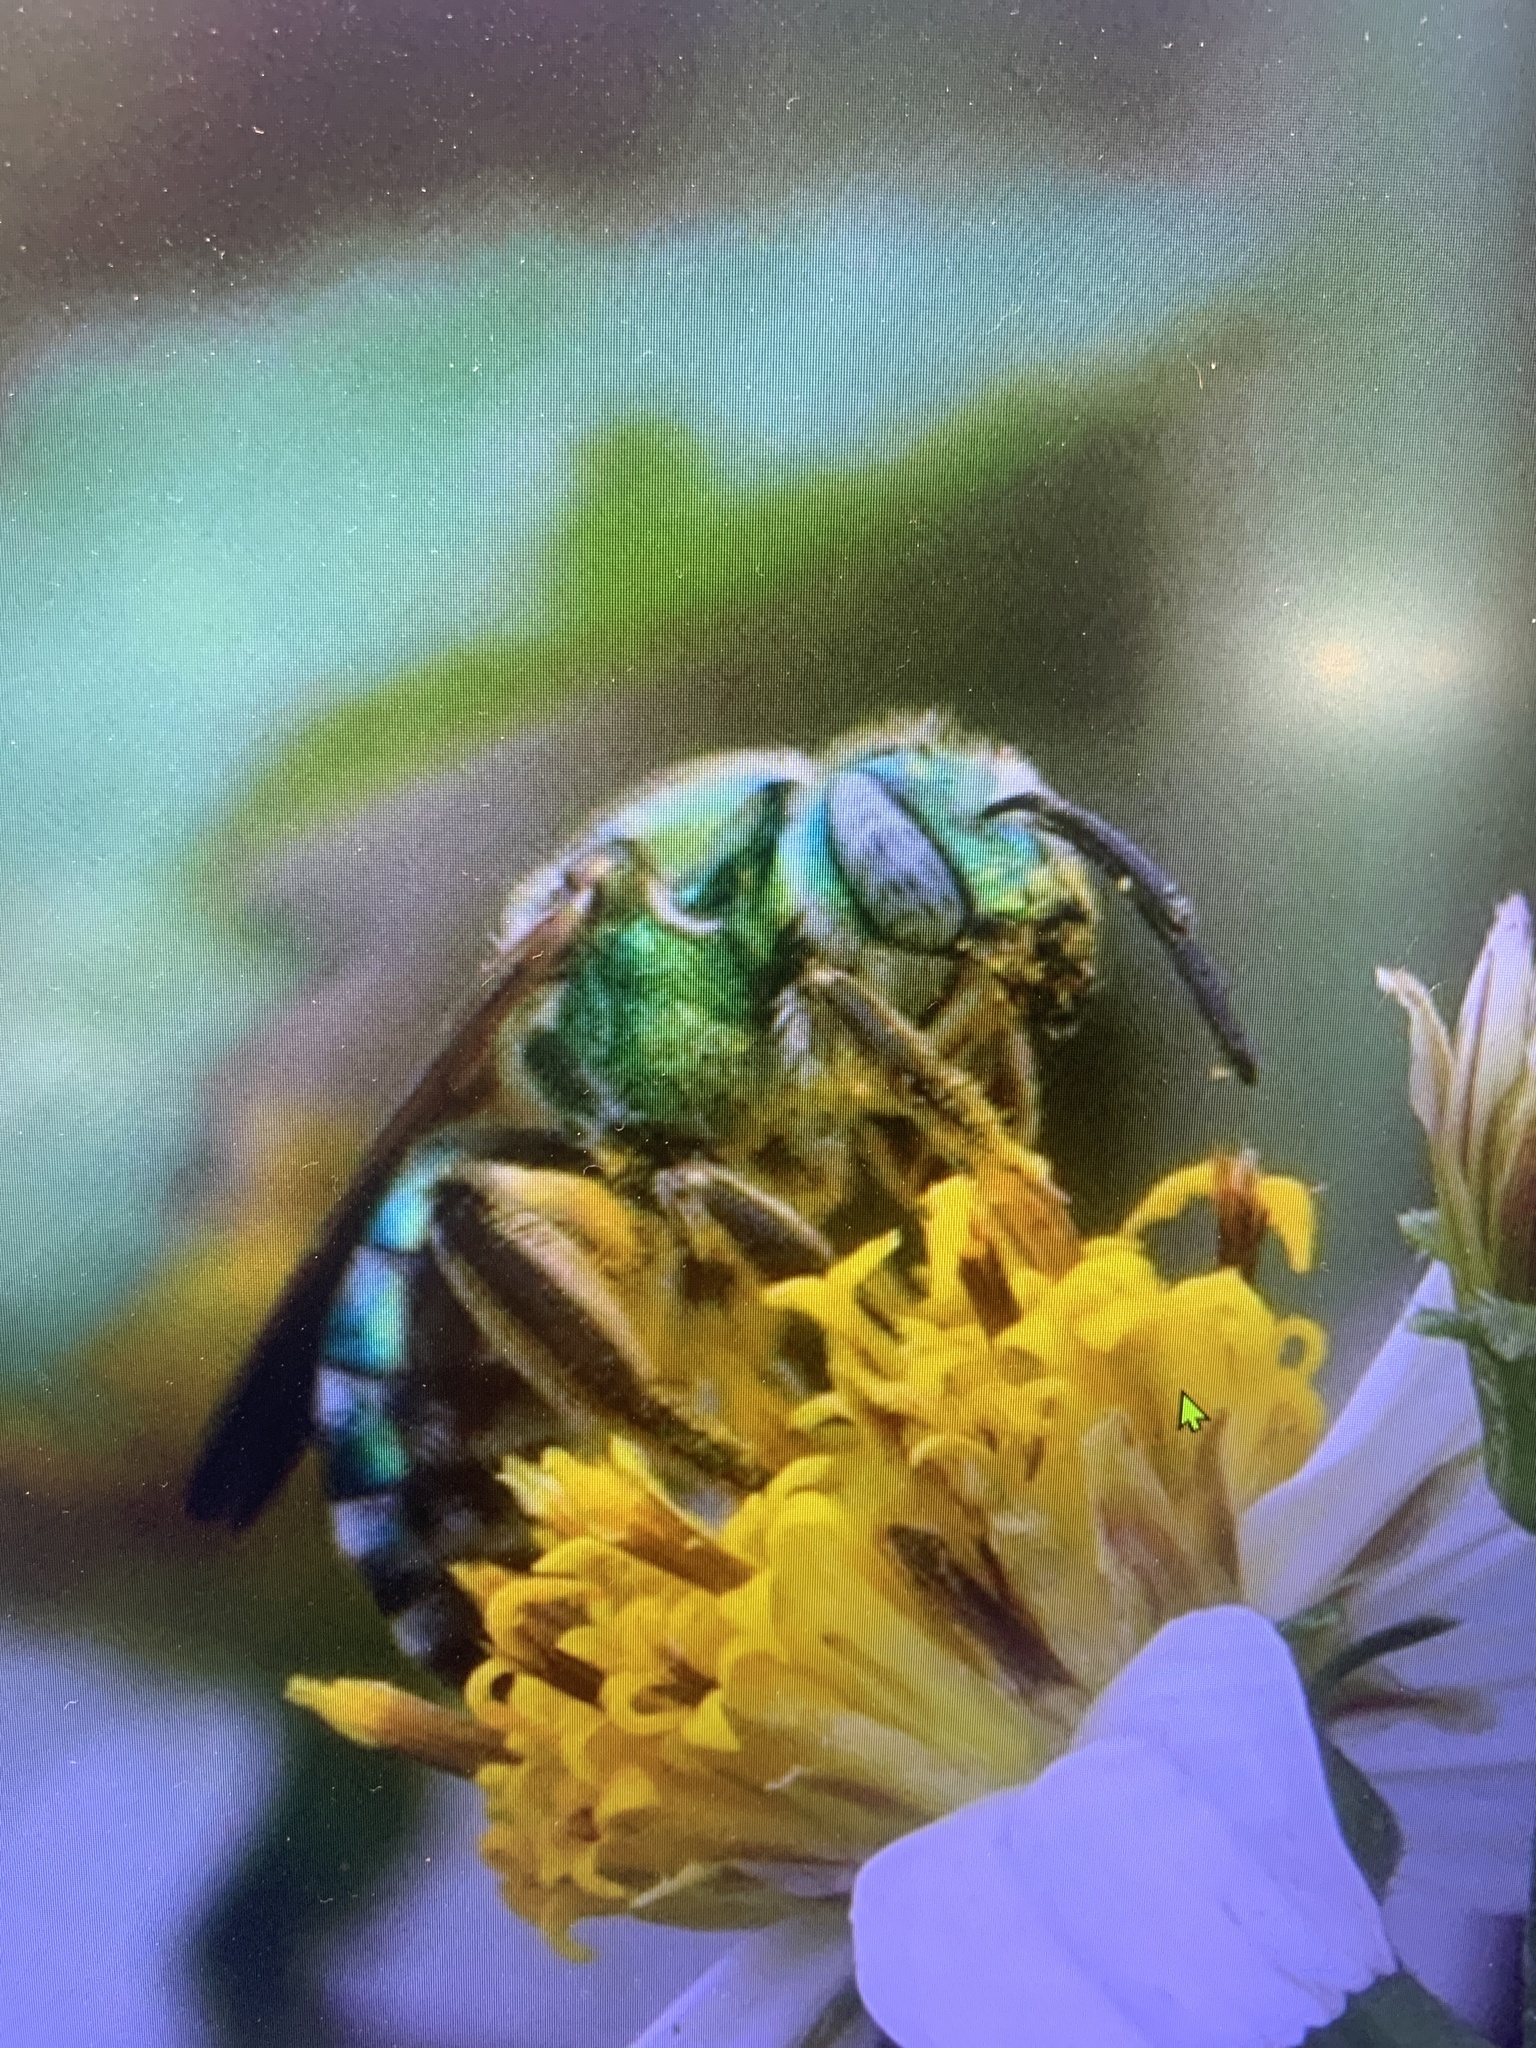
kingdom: Animalia
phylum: Arthropoda
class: Insecta
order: Hymenoptera
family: Halictidae
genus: Agapostemon
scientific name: Agapostemon splendens
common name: Brown-winged striped sweat bee
